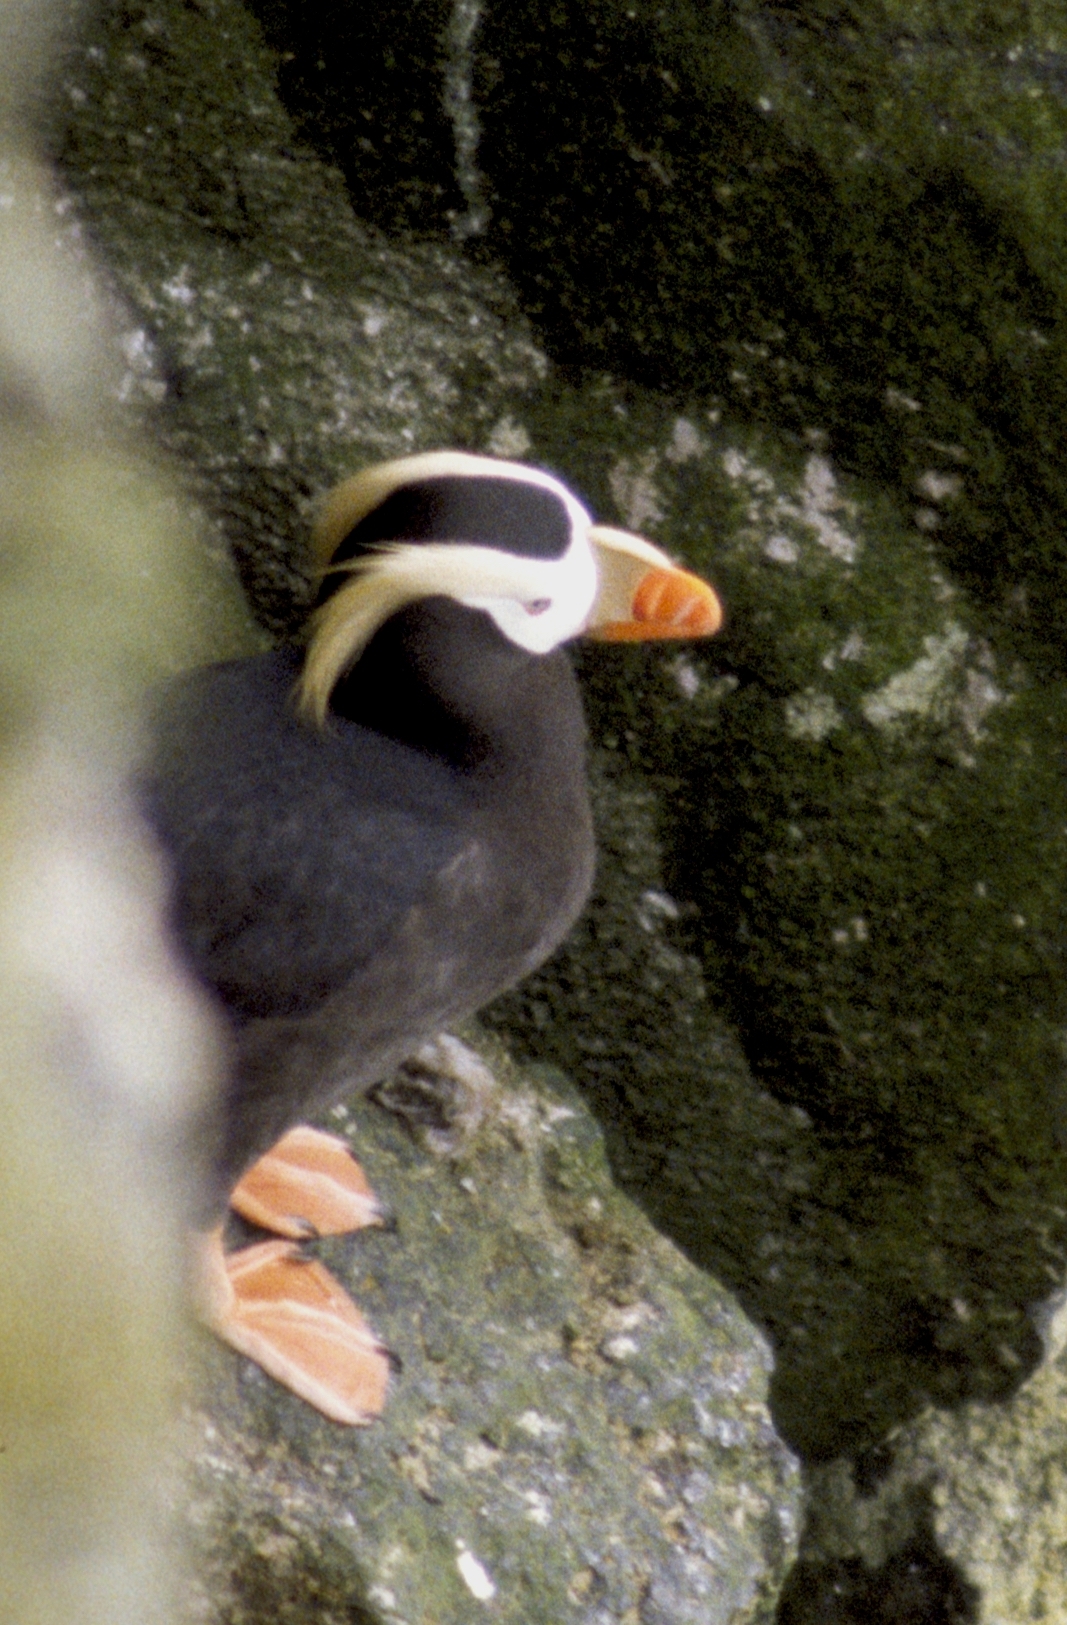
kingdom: Animalia
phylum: Chordata
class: Aves
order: Charadriiformes
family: Alcidae
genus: Fratercula
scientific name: Fratercula cirrhata
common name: Tufted puffin
